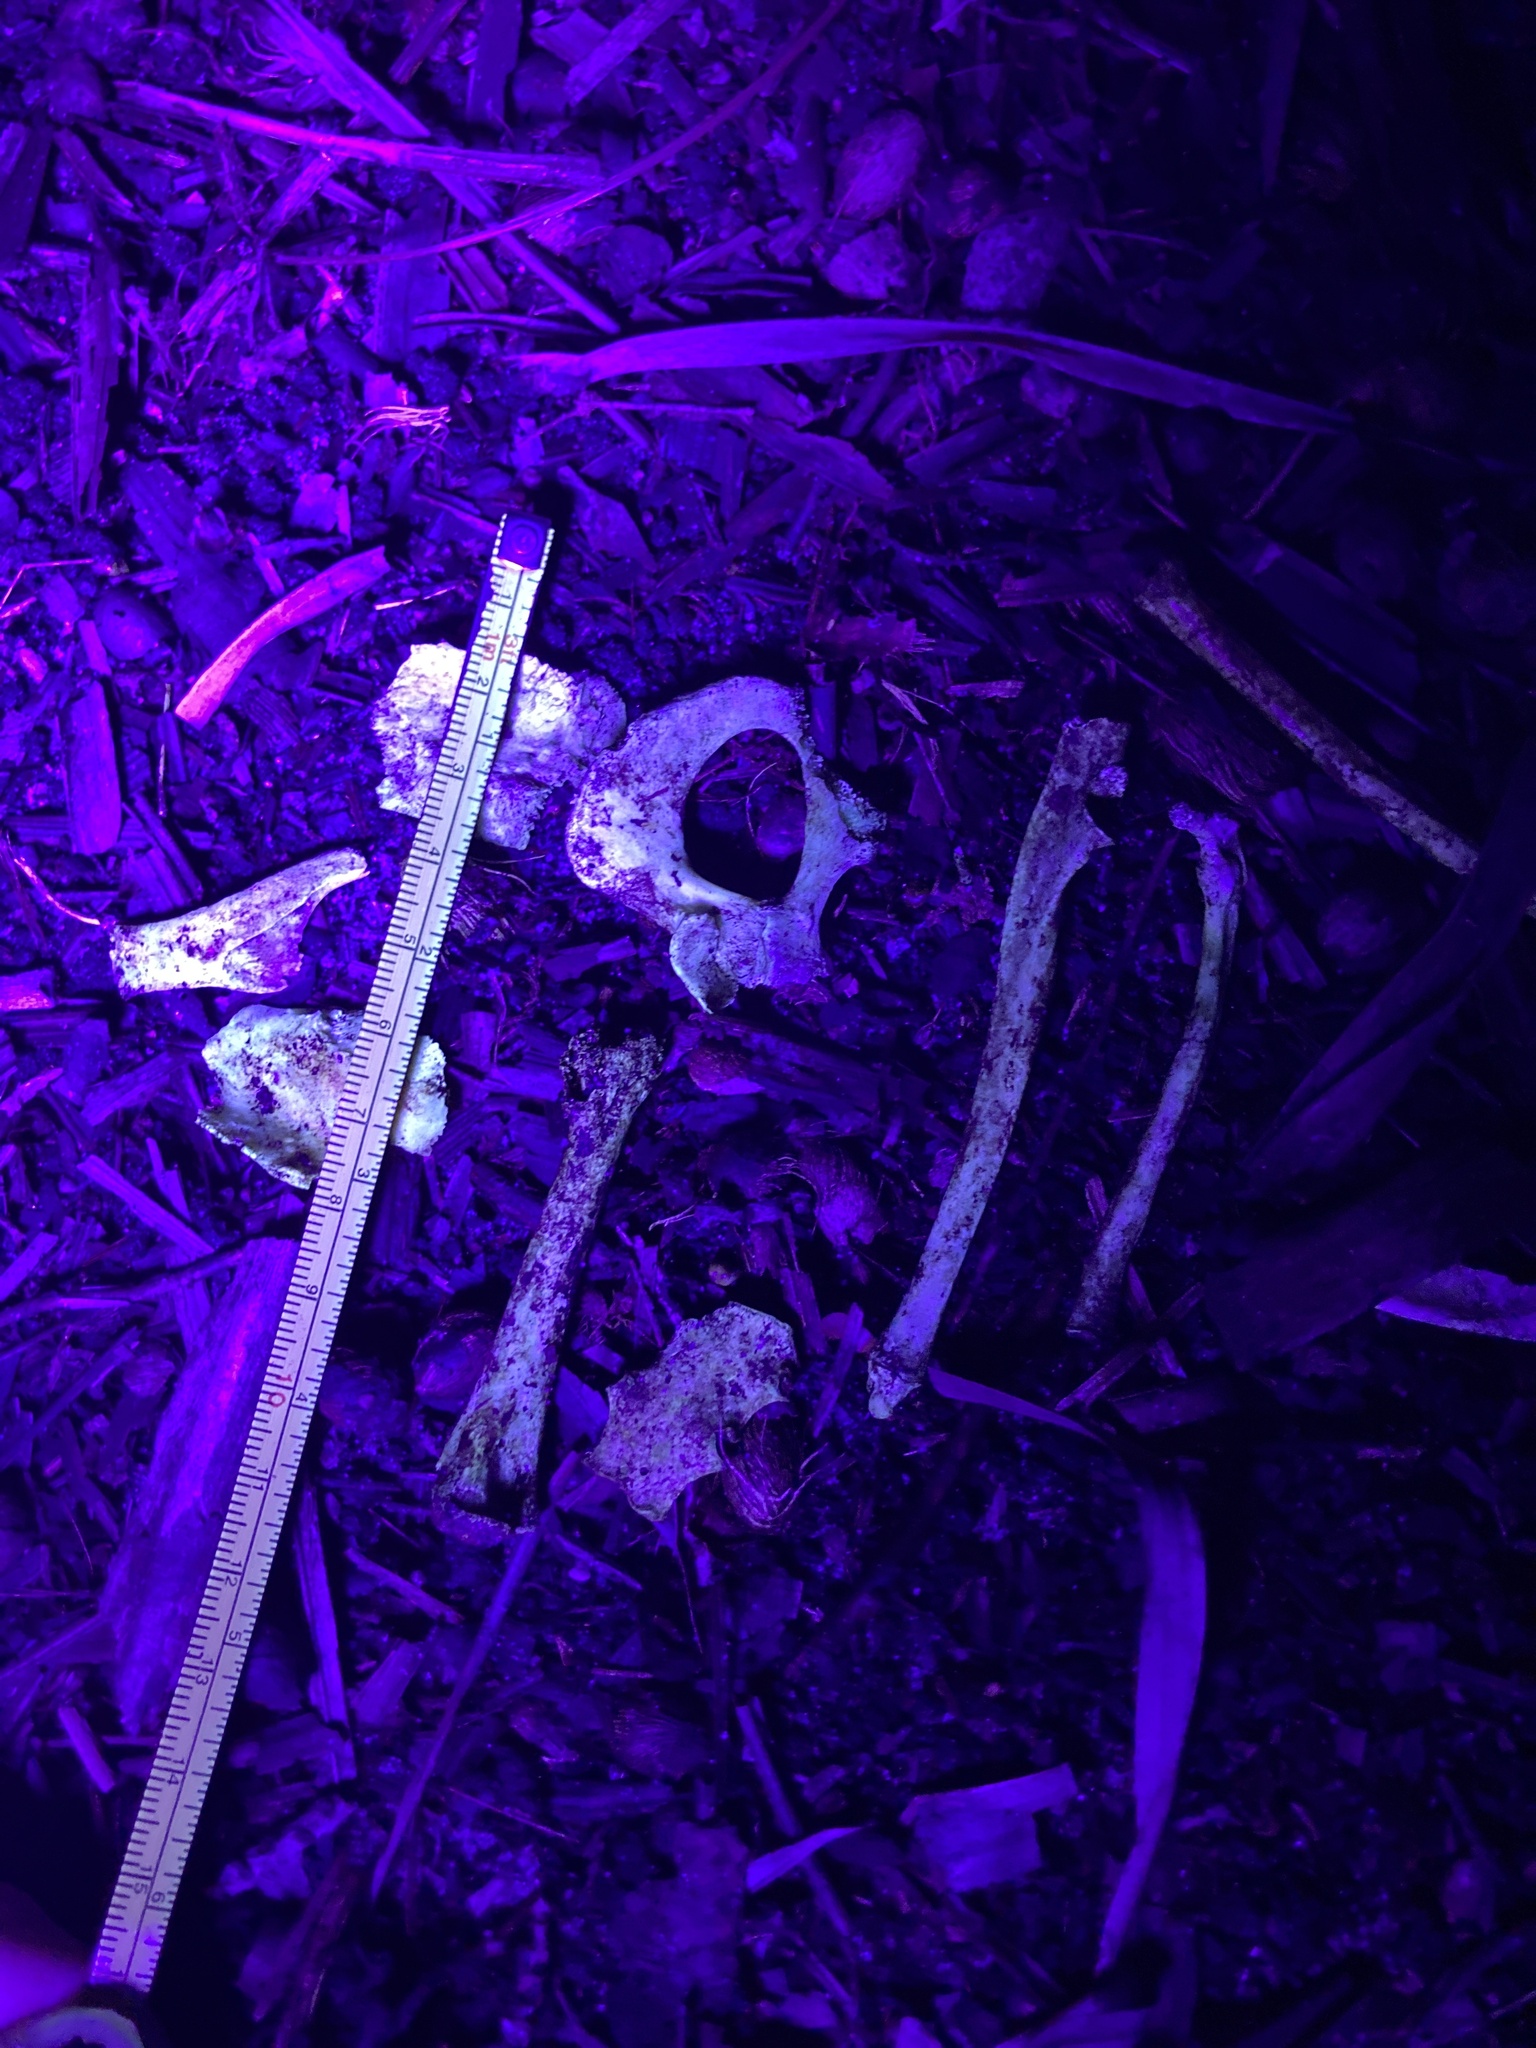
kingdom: Animalia
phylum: Chordata
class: Mammalia
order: Didelphimorphia
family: Didelphidae
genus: Didelphis
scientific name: Didelphis virginiana
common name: Virginia opossum
